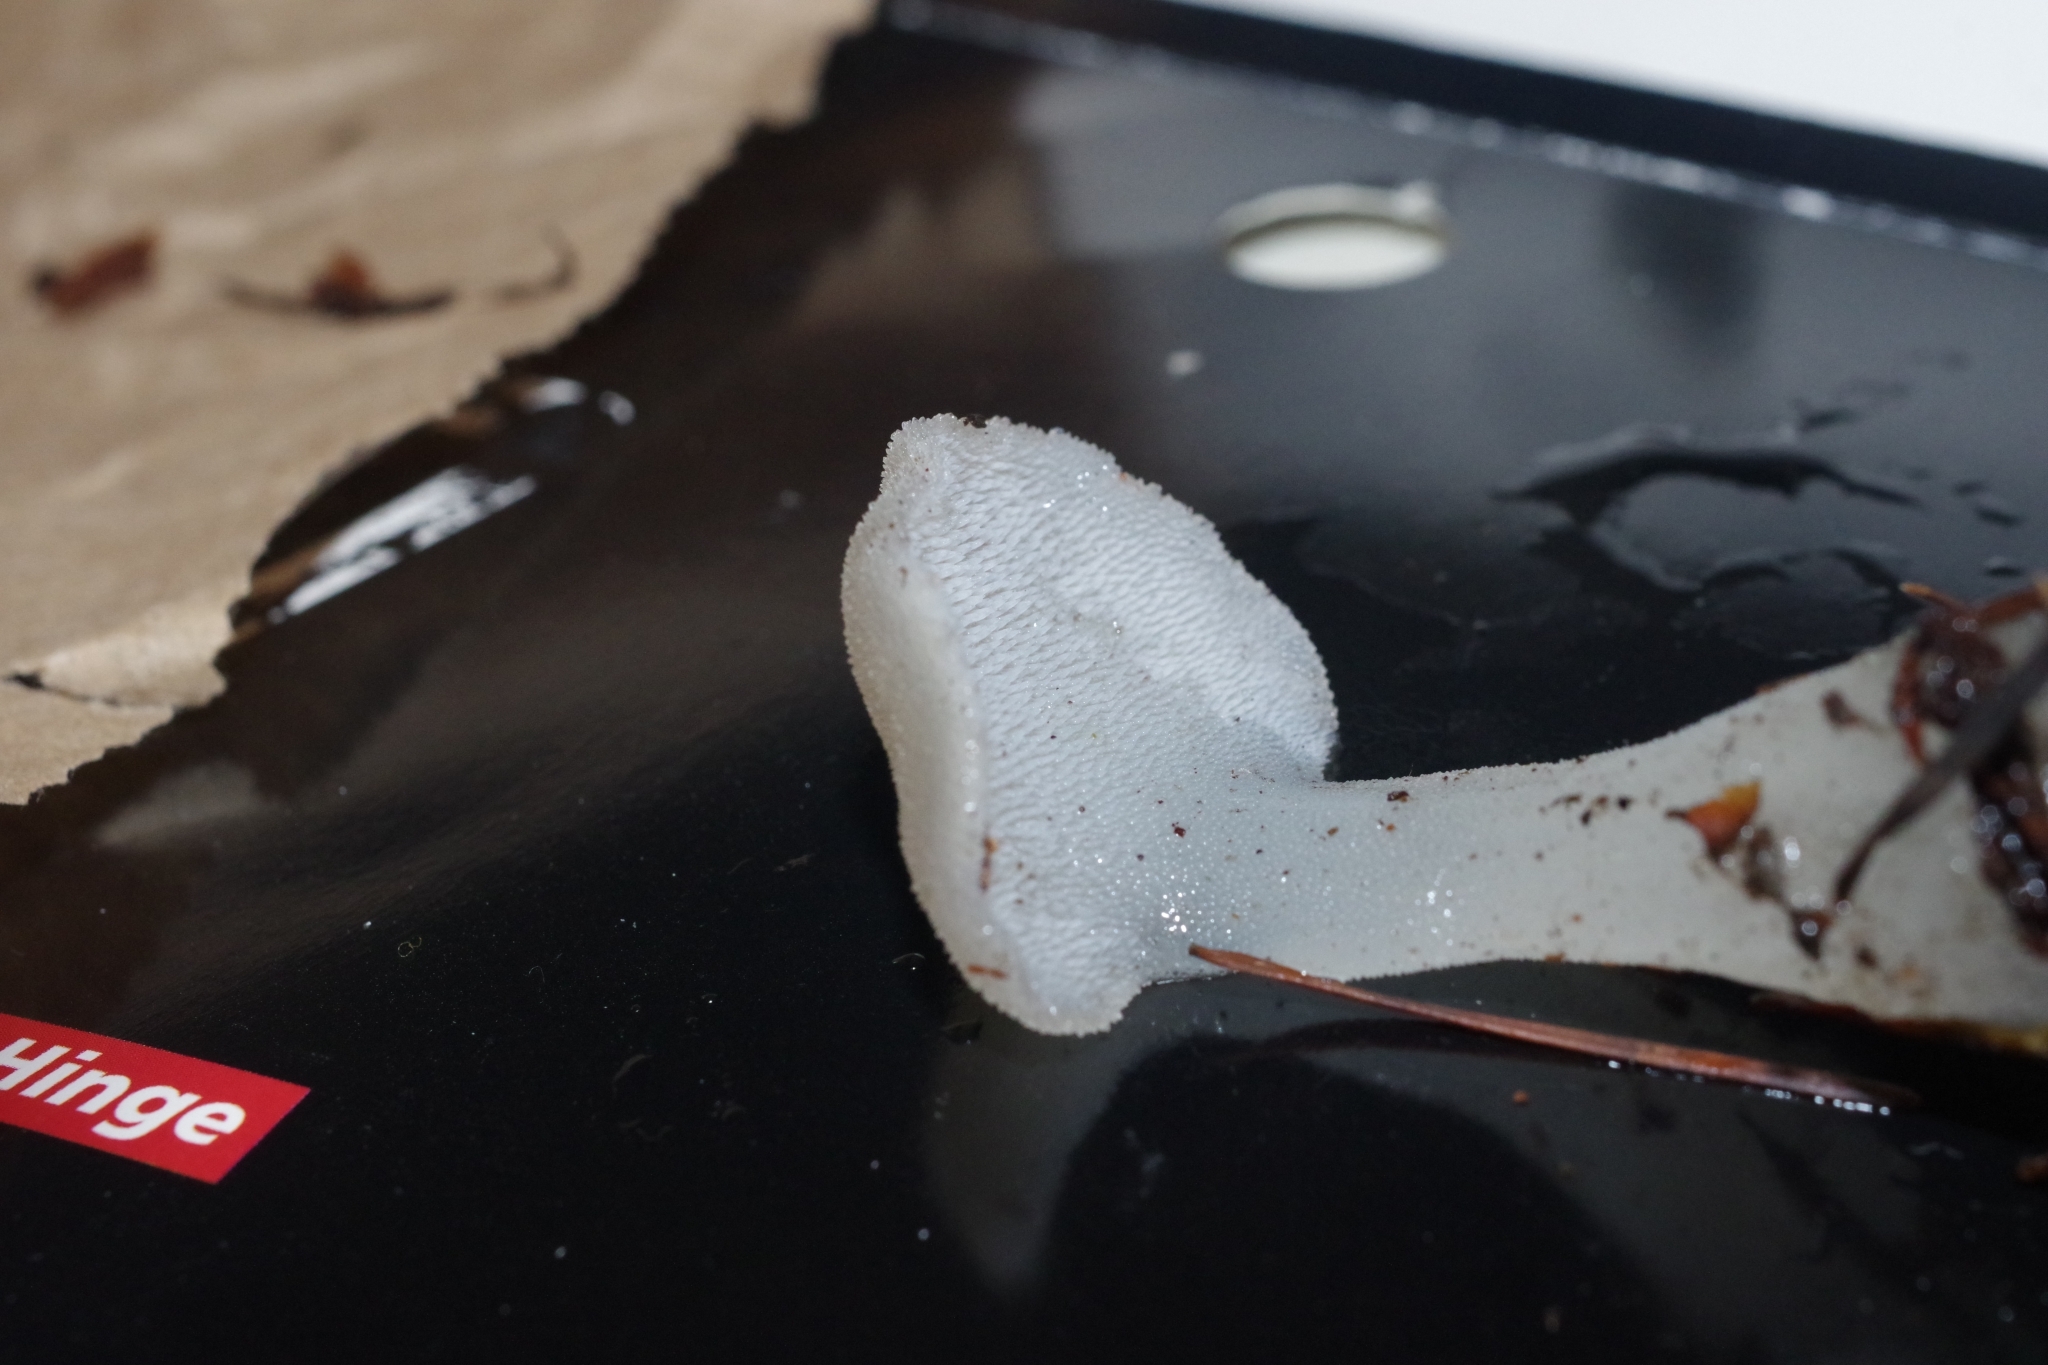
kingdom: Fungi
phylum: Basidiomycota
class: Agaricomycetes
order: Auriculariales
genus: Pseudohydnum
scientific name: Pseudohydnum gelatinosum
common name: Jelly tongue
